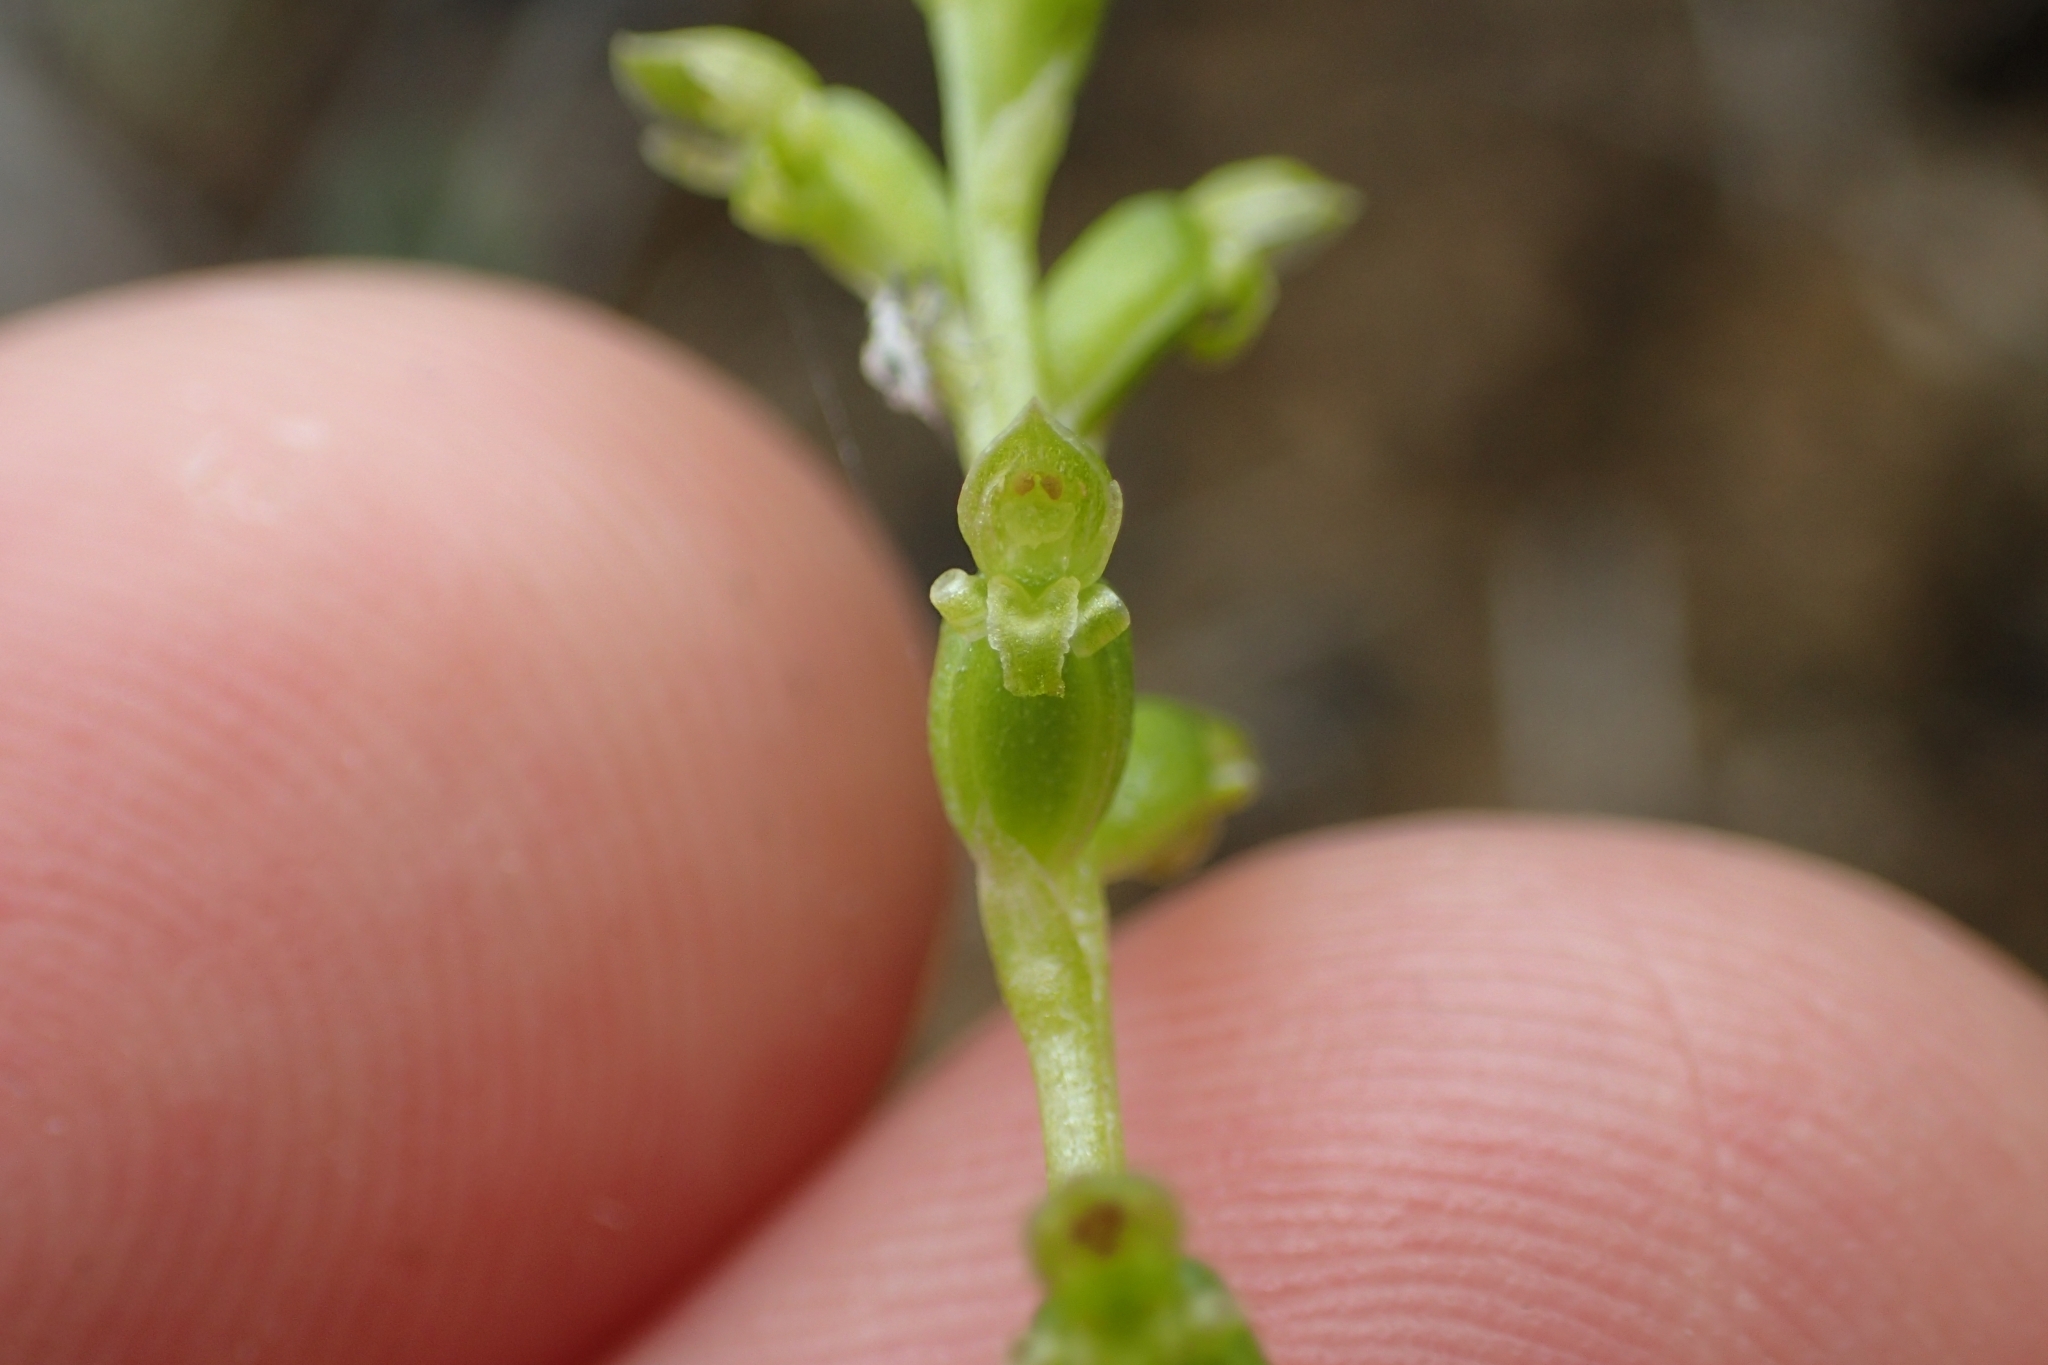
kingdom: Plantae
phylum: Tracheophyta
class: Liliopsida
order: Asparagales
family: Orchidaceae
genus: Microtis
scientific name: Microtis parviflora
